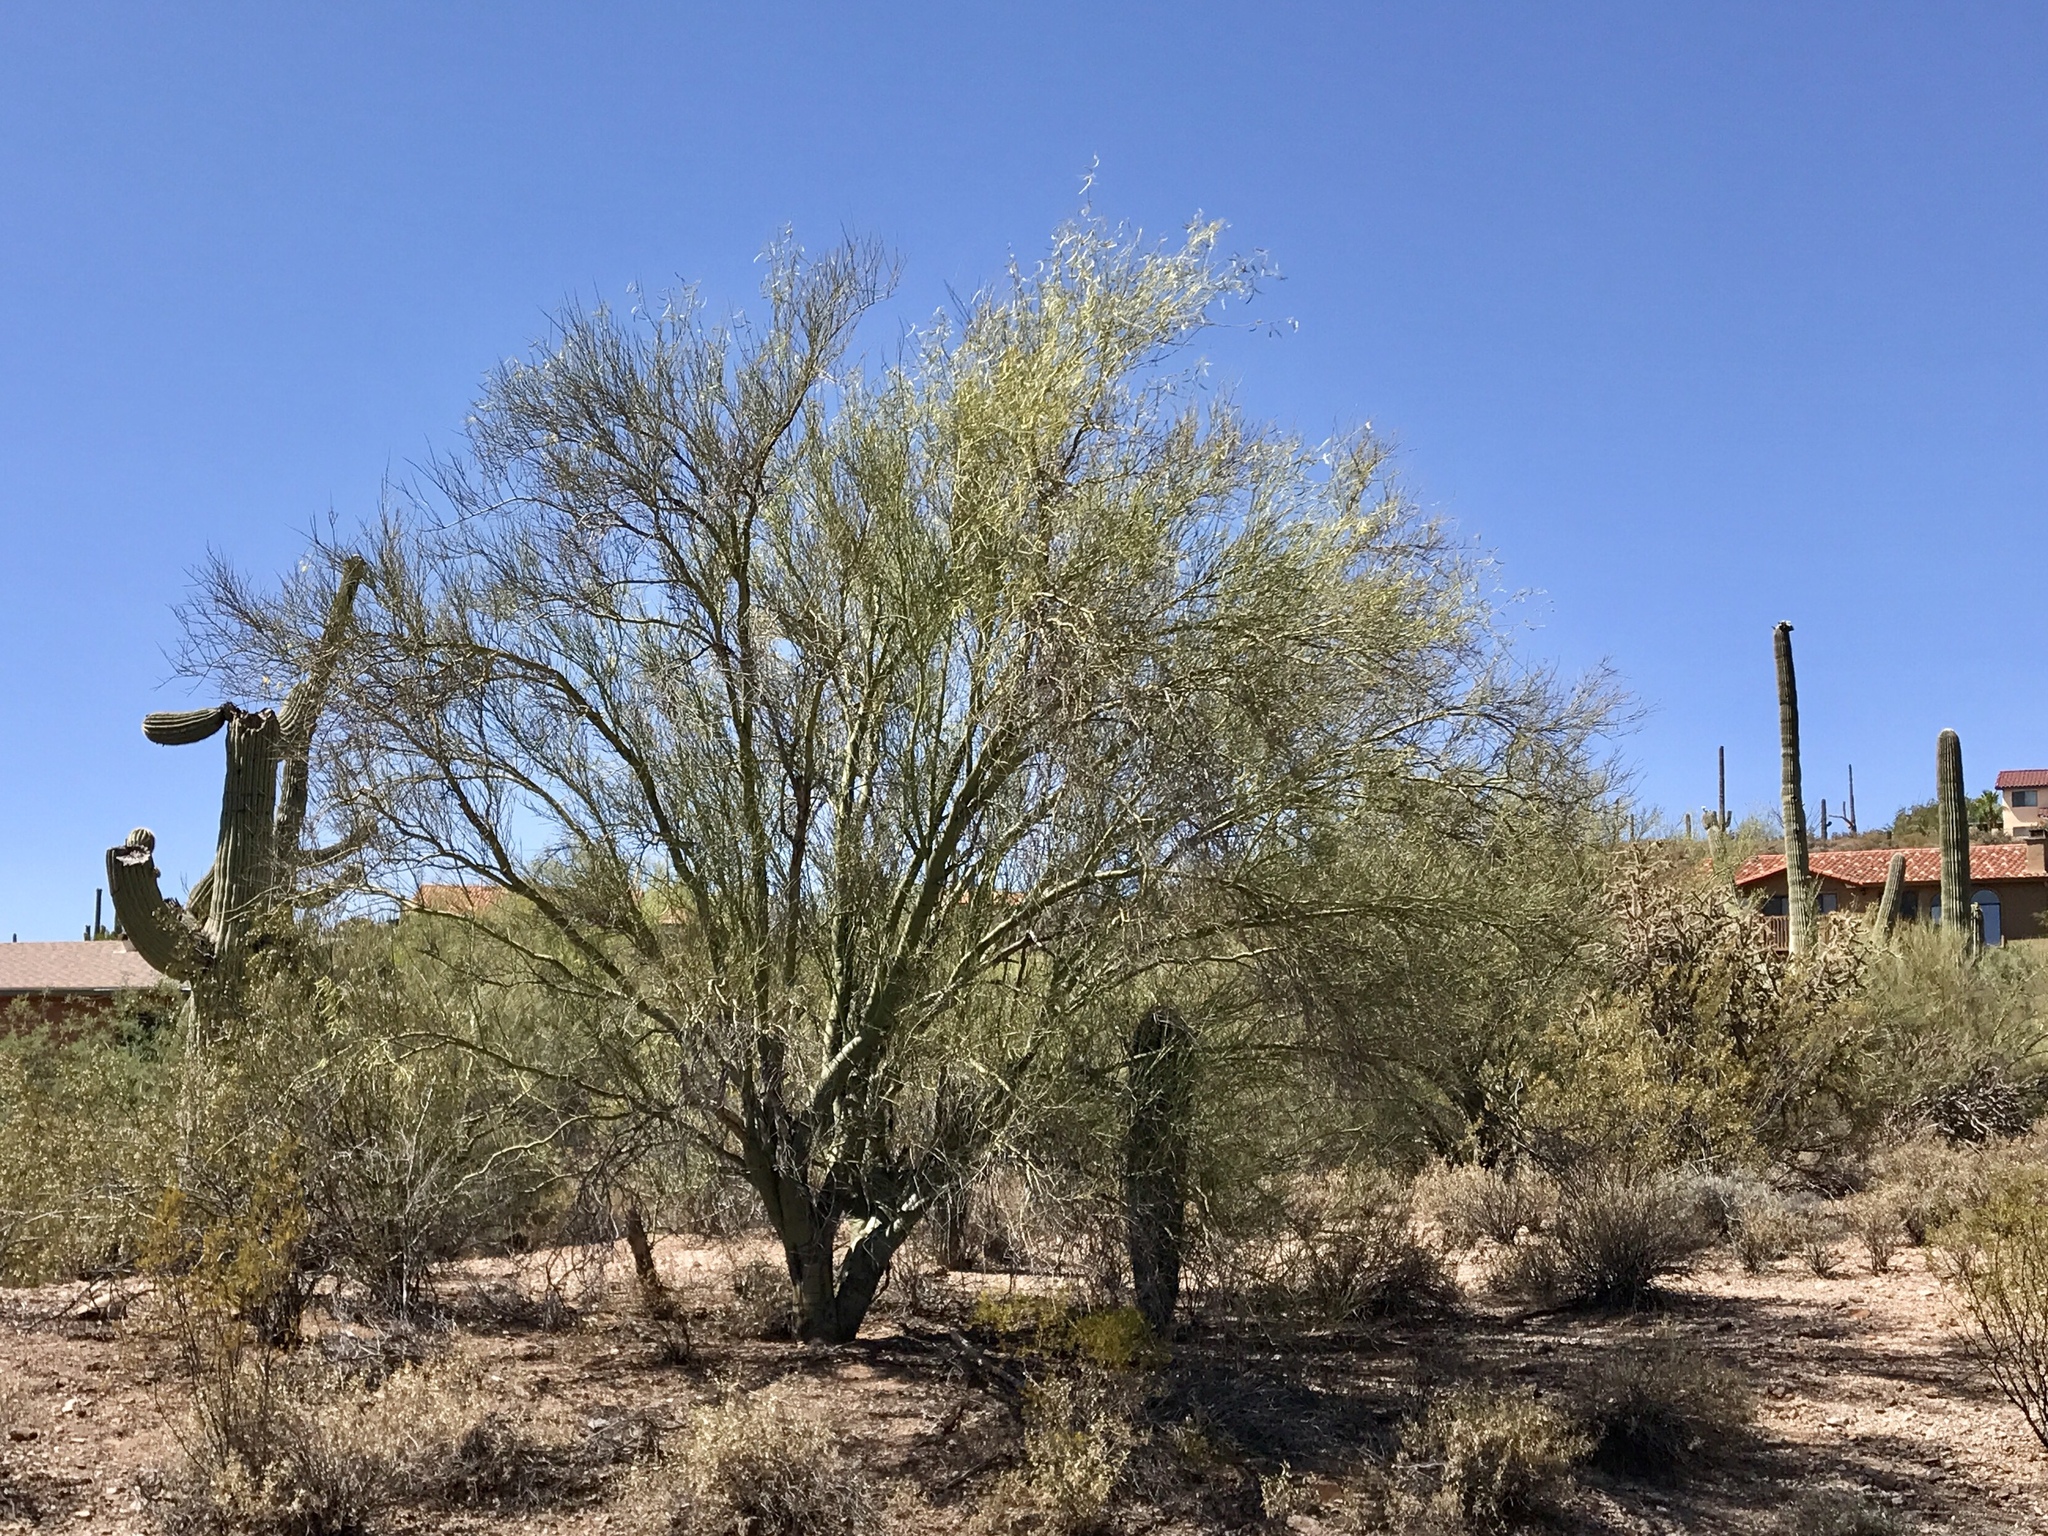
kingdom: Plantae
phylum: Tracheophyta
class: Magnoliopsida
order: Fabales
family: Fabaceae
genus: Parkinsonia
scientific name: Parkinsonia microphylla
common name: Yellow paloverde
